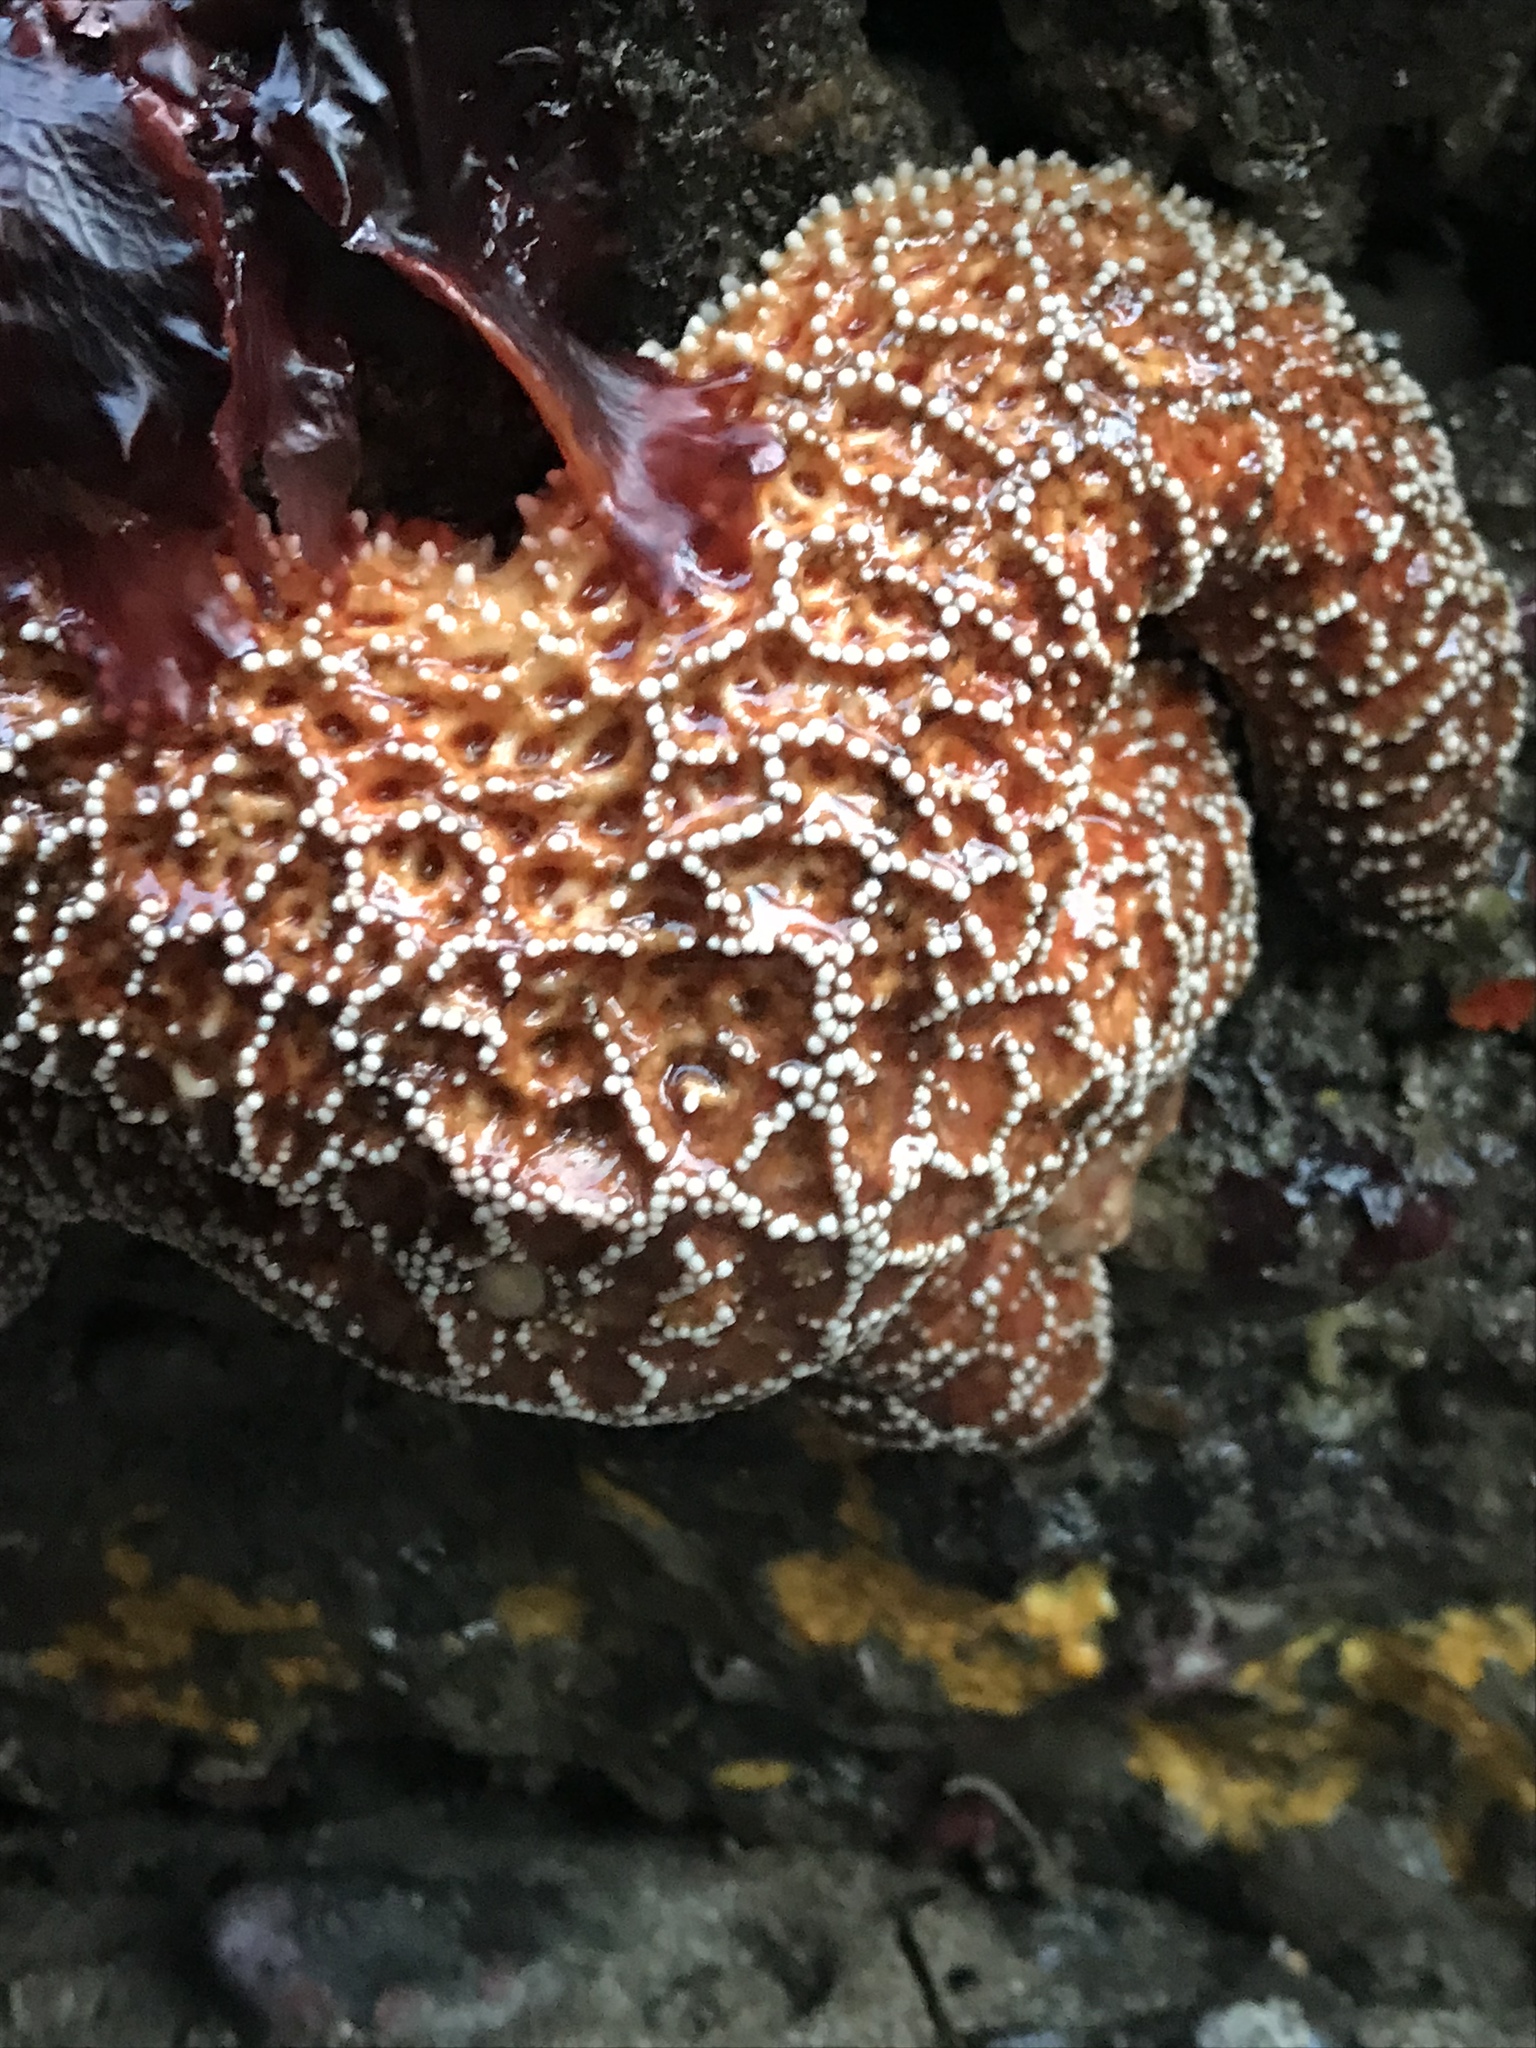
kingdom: Animalia
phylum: Echinodermata
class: Asteroidea
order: Forcipulatida
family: Asteriidae
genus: Pisaster
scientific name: Pisaster ochraceus
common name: Ochre stars
